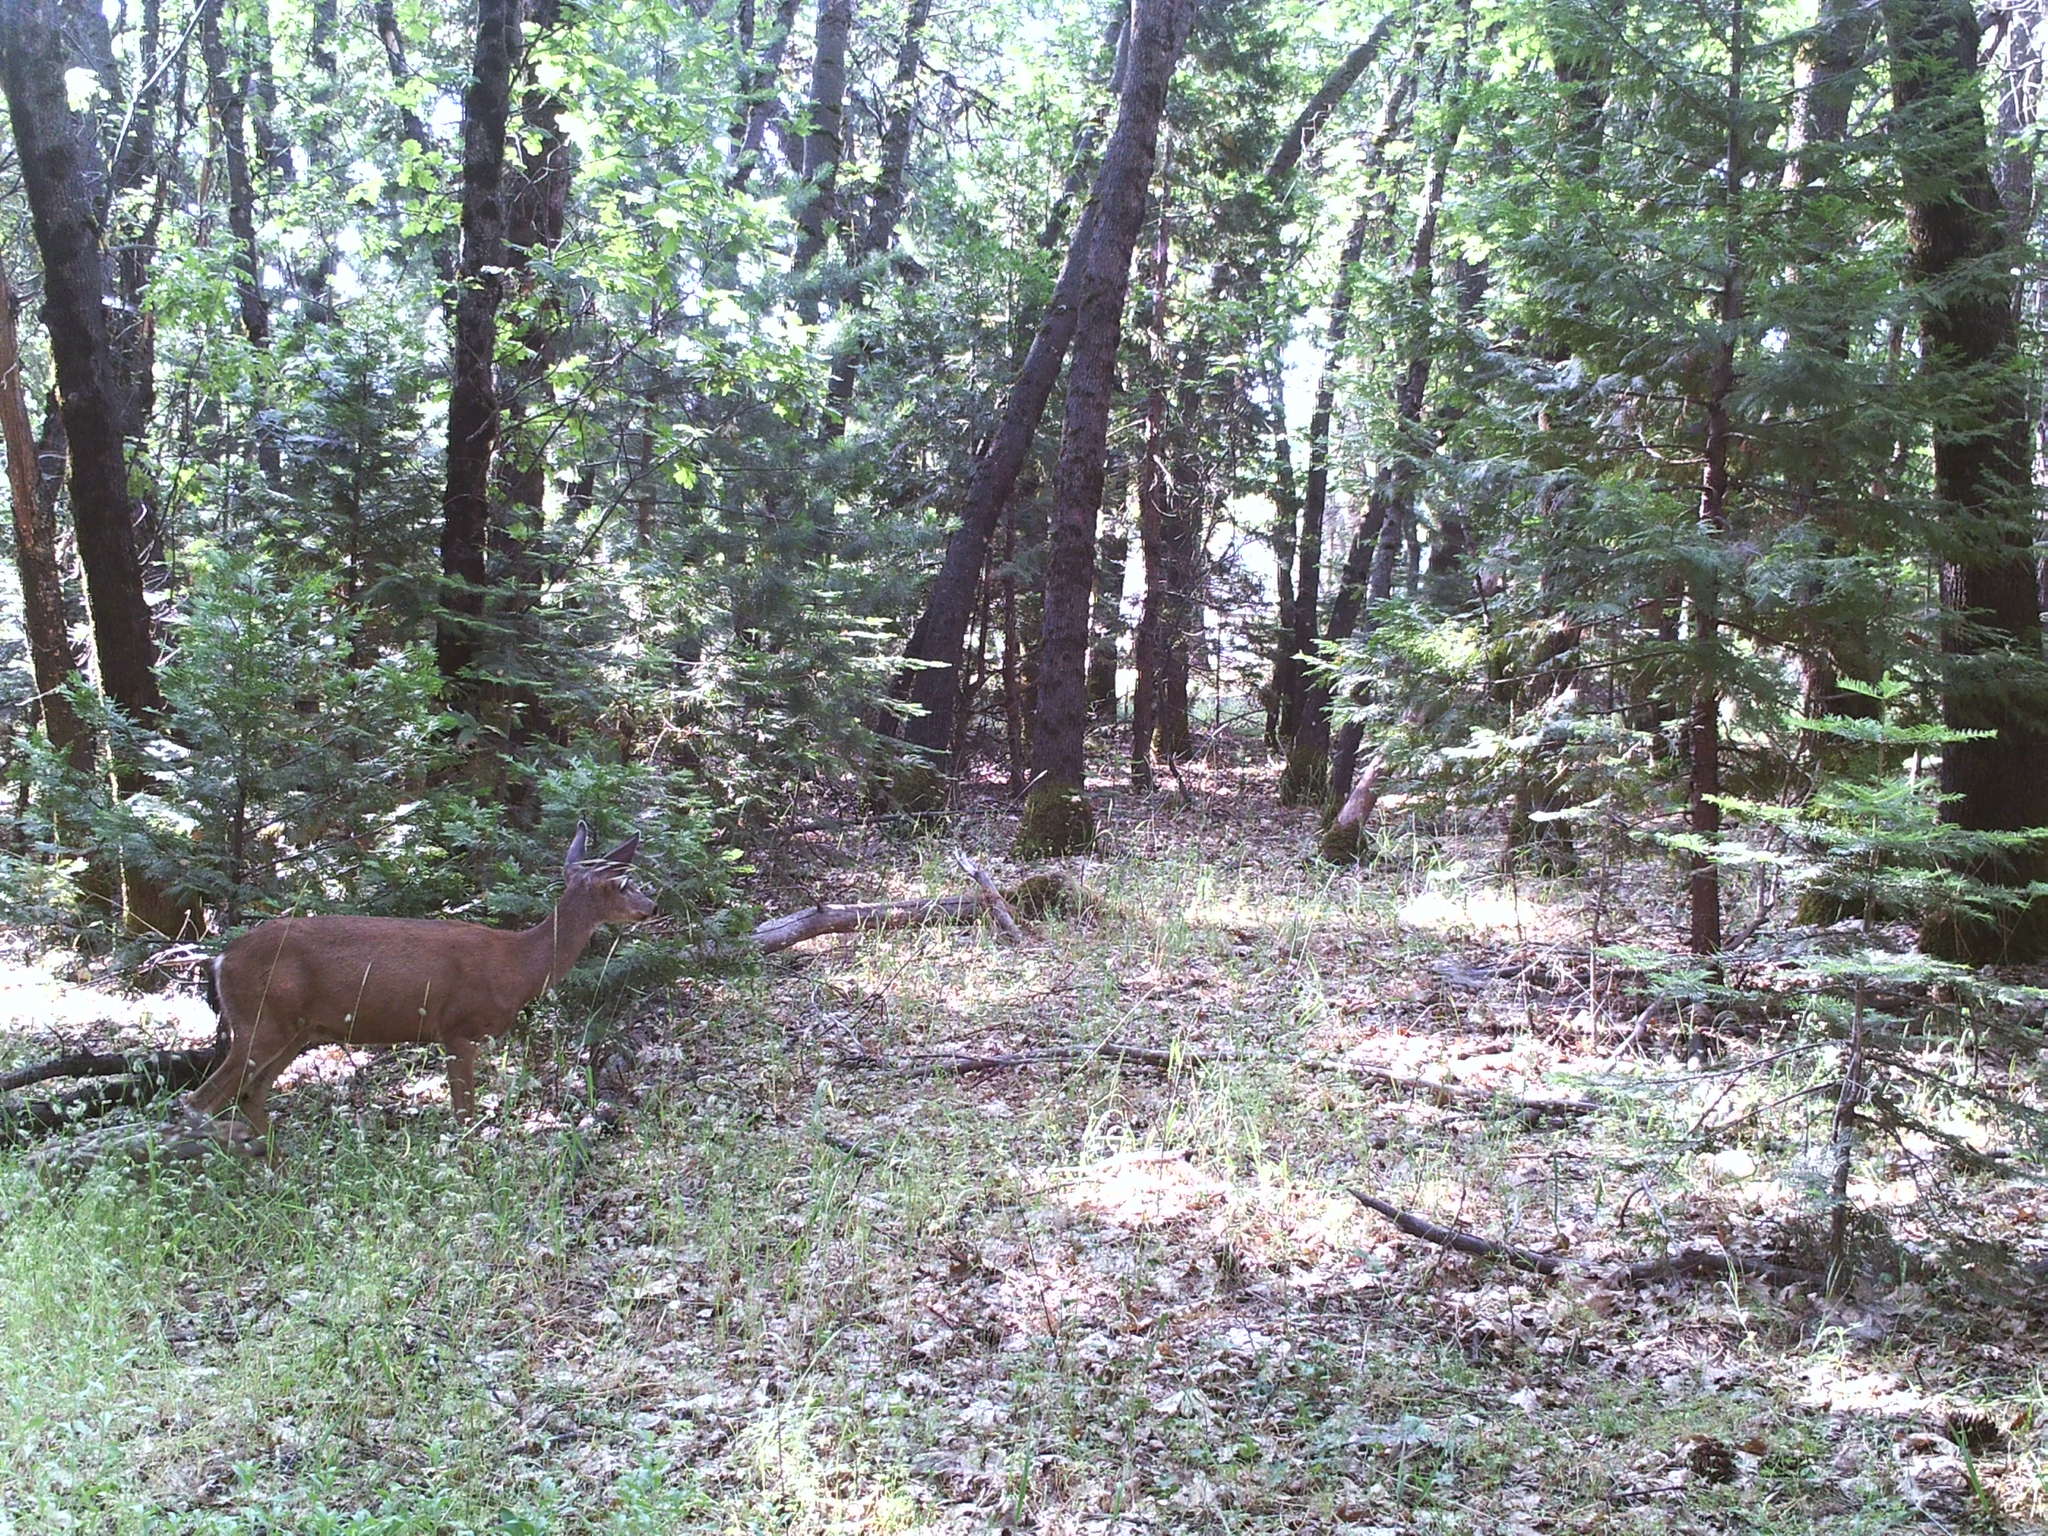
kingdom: Animalia
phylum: Chordata
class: Mammalia
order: Artiodactyla
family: Cervidae
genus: Odocoileus
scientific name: Odocoileus hemionus
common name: Mule deer
